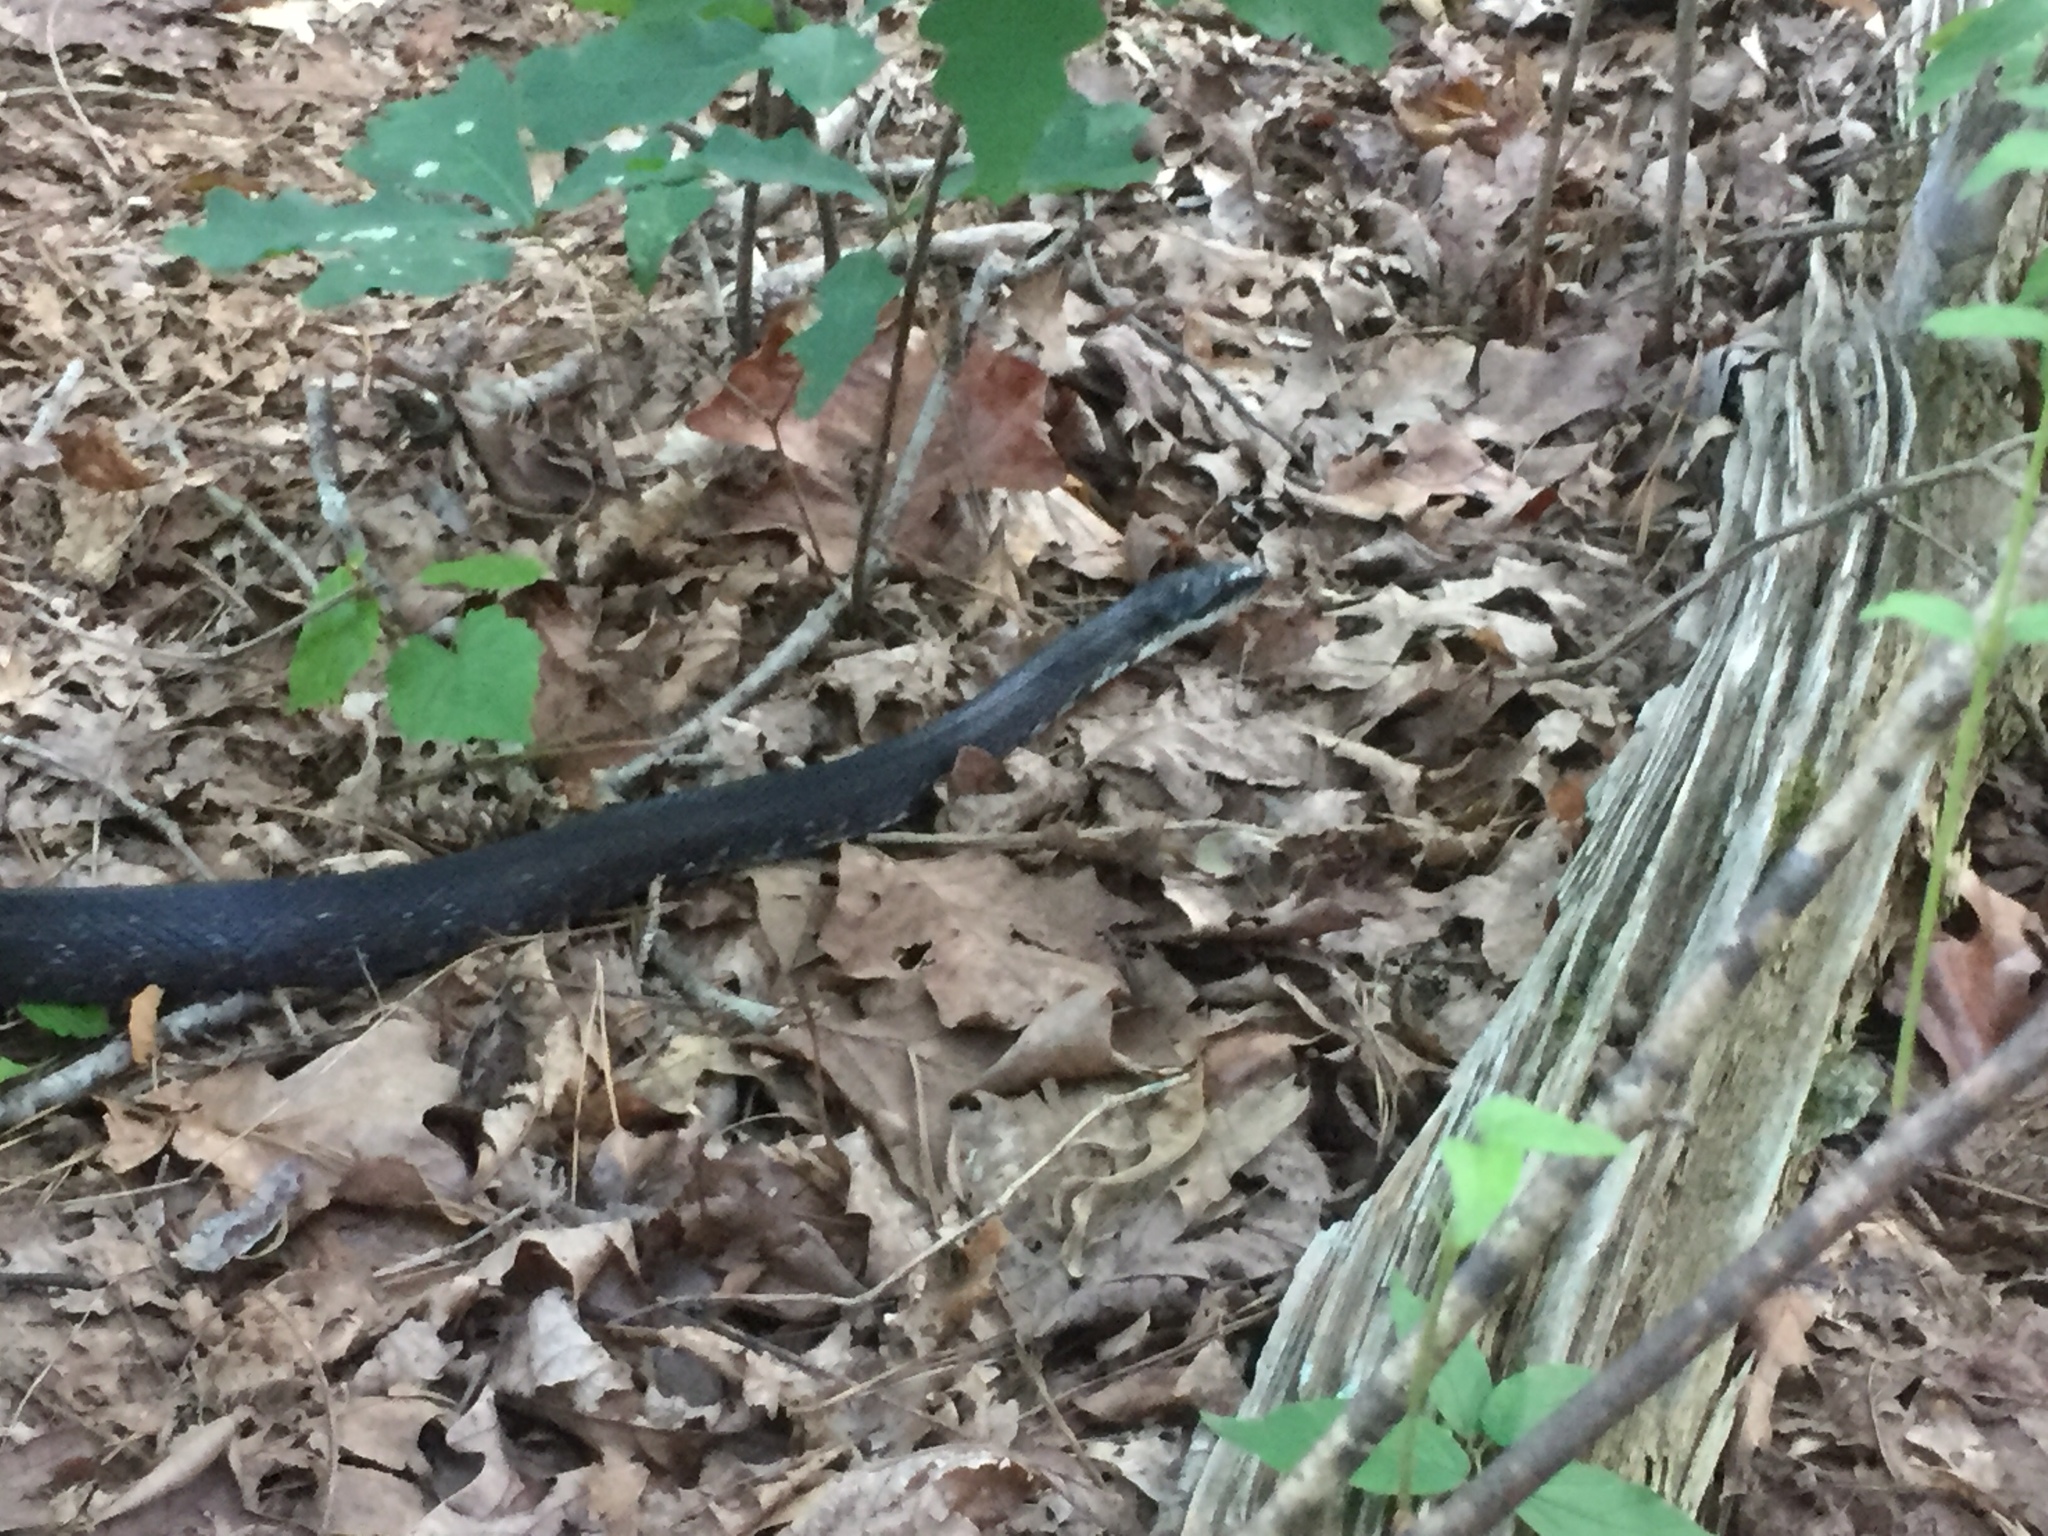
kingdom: Animalia
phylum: Chordata
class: Squamata
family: Colubridae
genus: Pantherophis
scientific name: Pantherophis alleghaniensis
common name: Eastern rat snake
